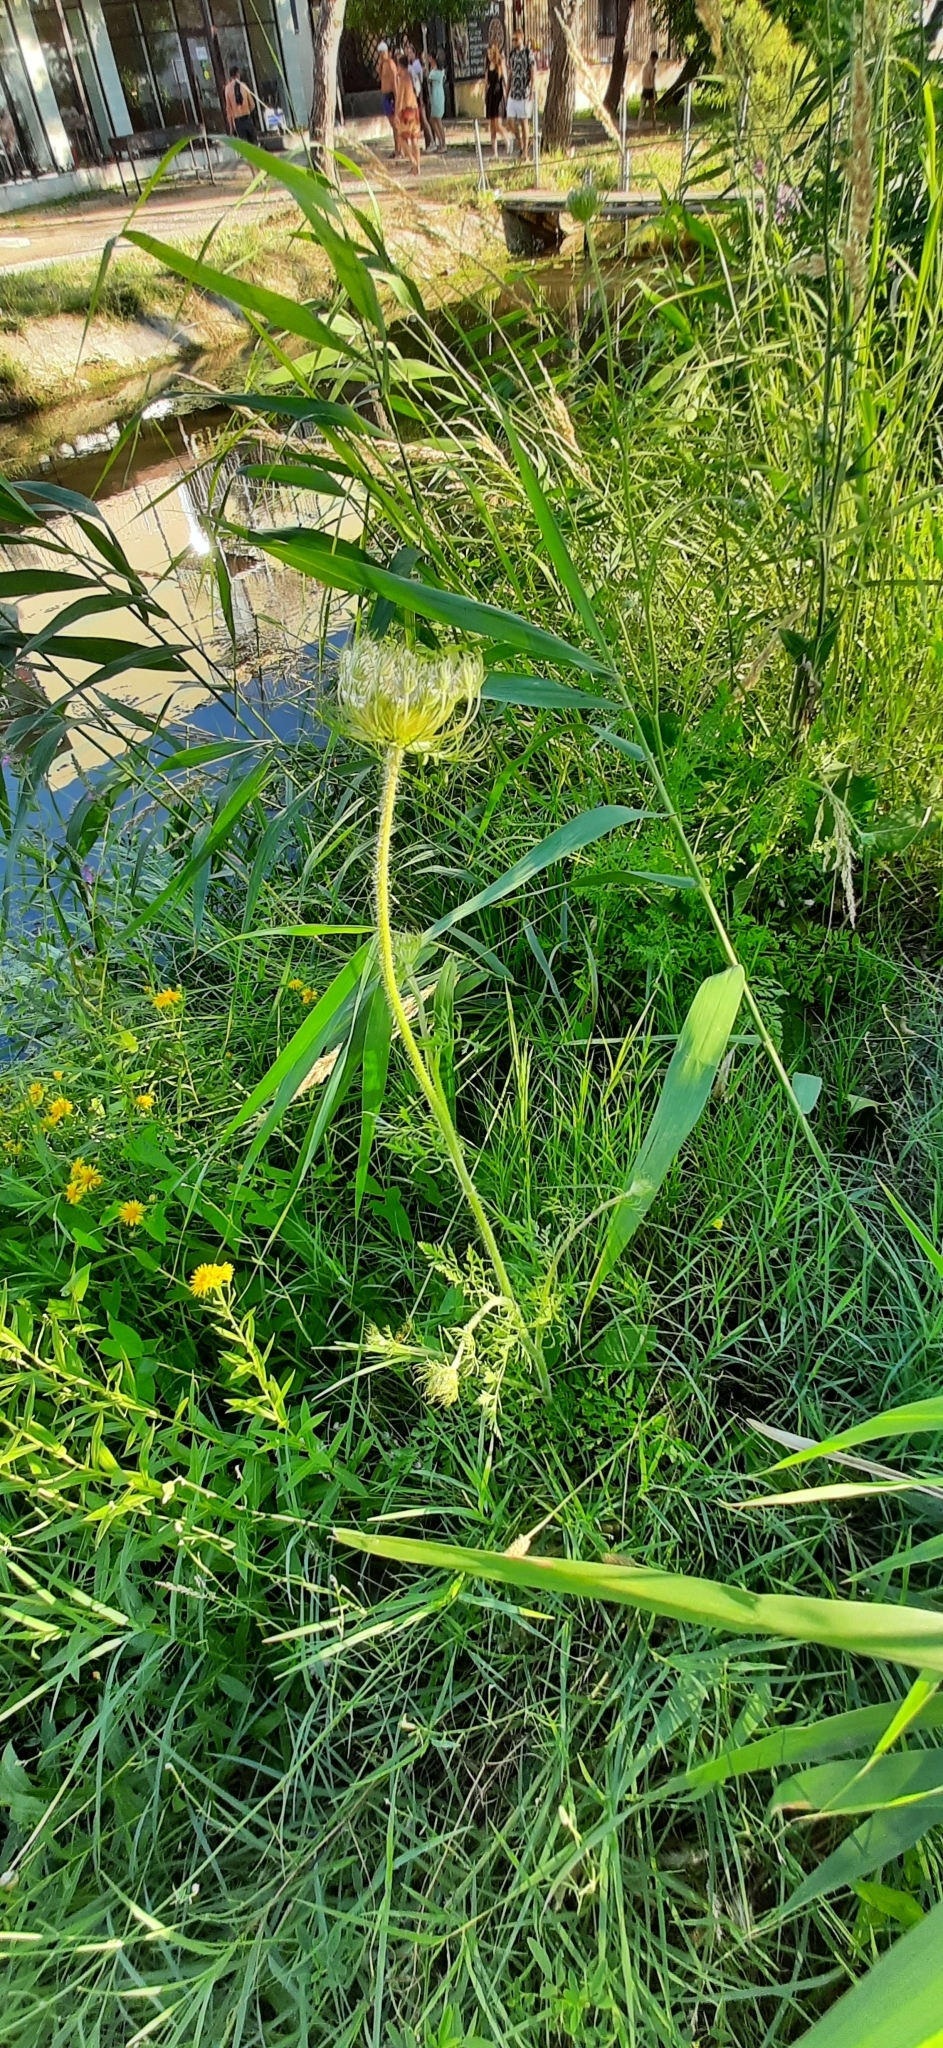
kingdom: Plantae
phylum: Tracheophyta
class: Magnoliopsida
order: Apiales
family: Apiaceae
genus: Daucus
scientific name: Daucus carota
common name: Wild carrot
